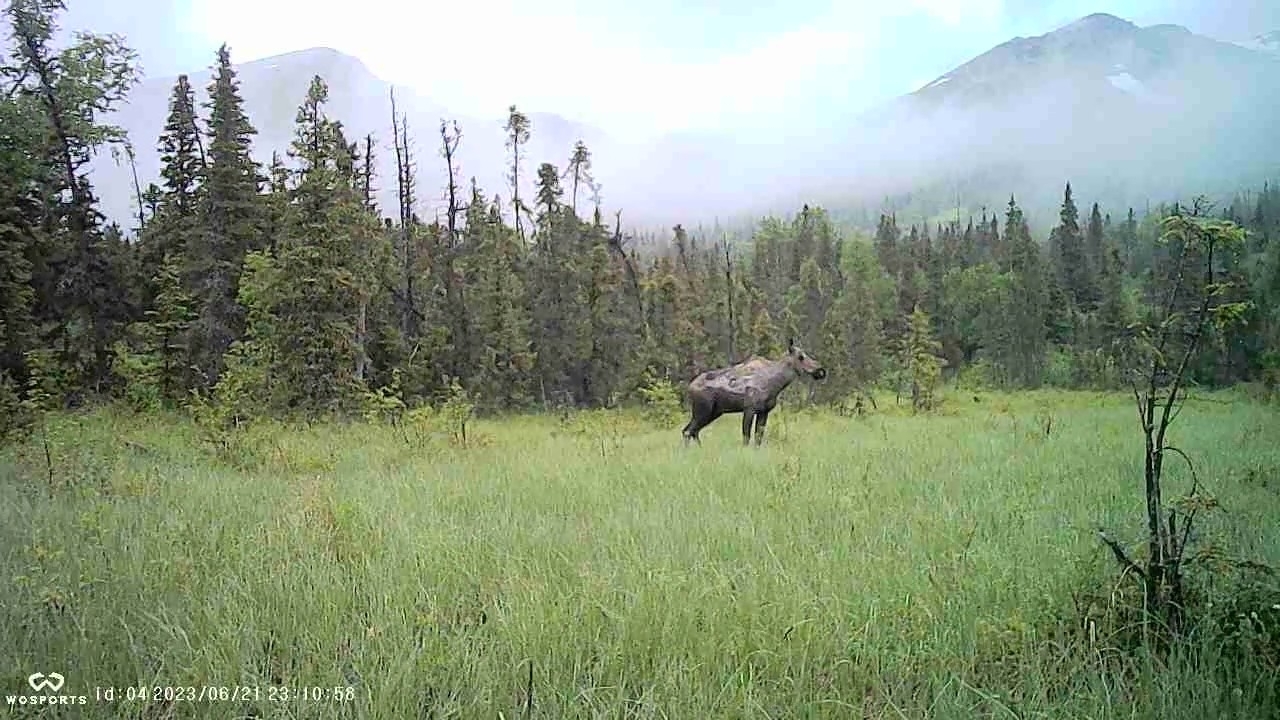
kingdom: Animalia
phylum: Chordata
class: Mammalia
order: Artiodactyla
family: Cervidae
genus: Alces
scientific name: Alces alces
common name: Moose
